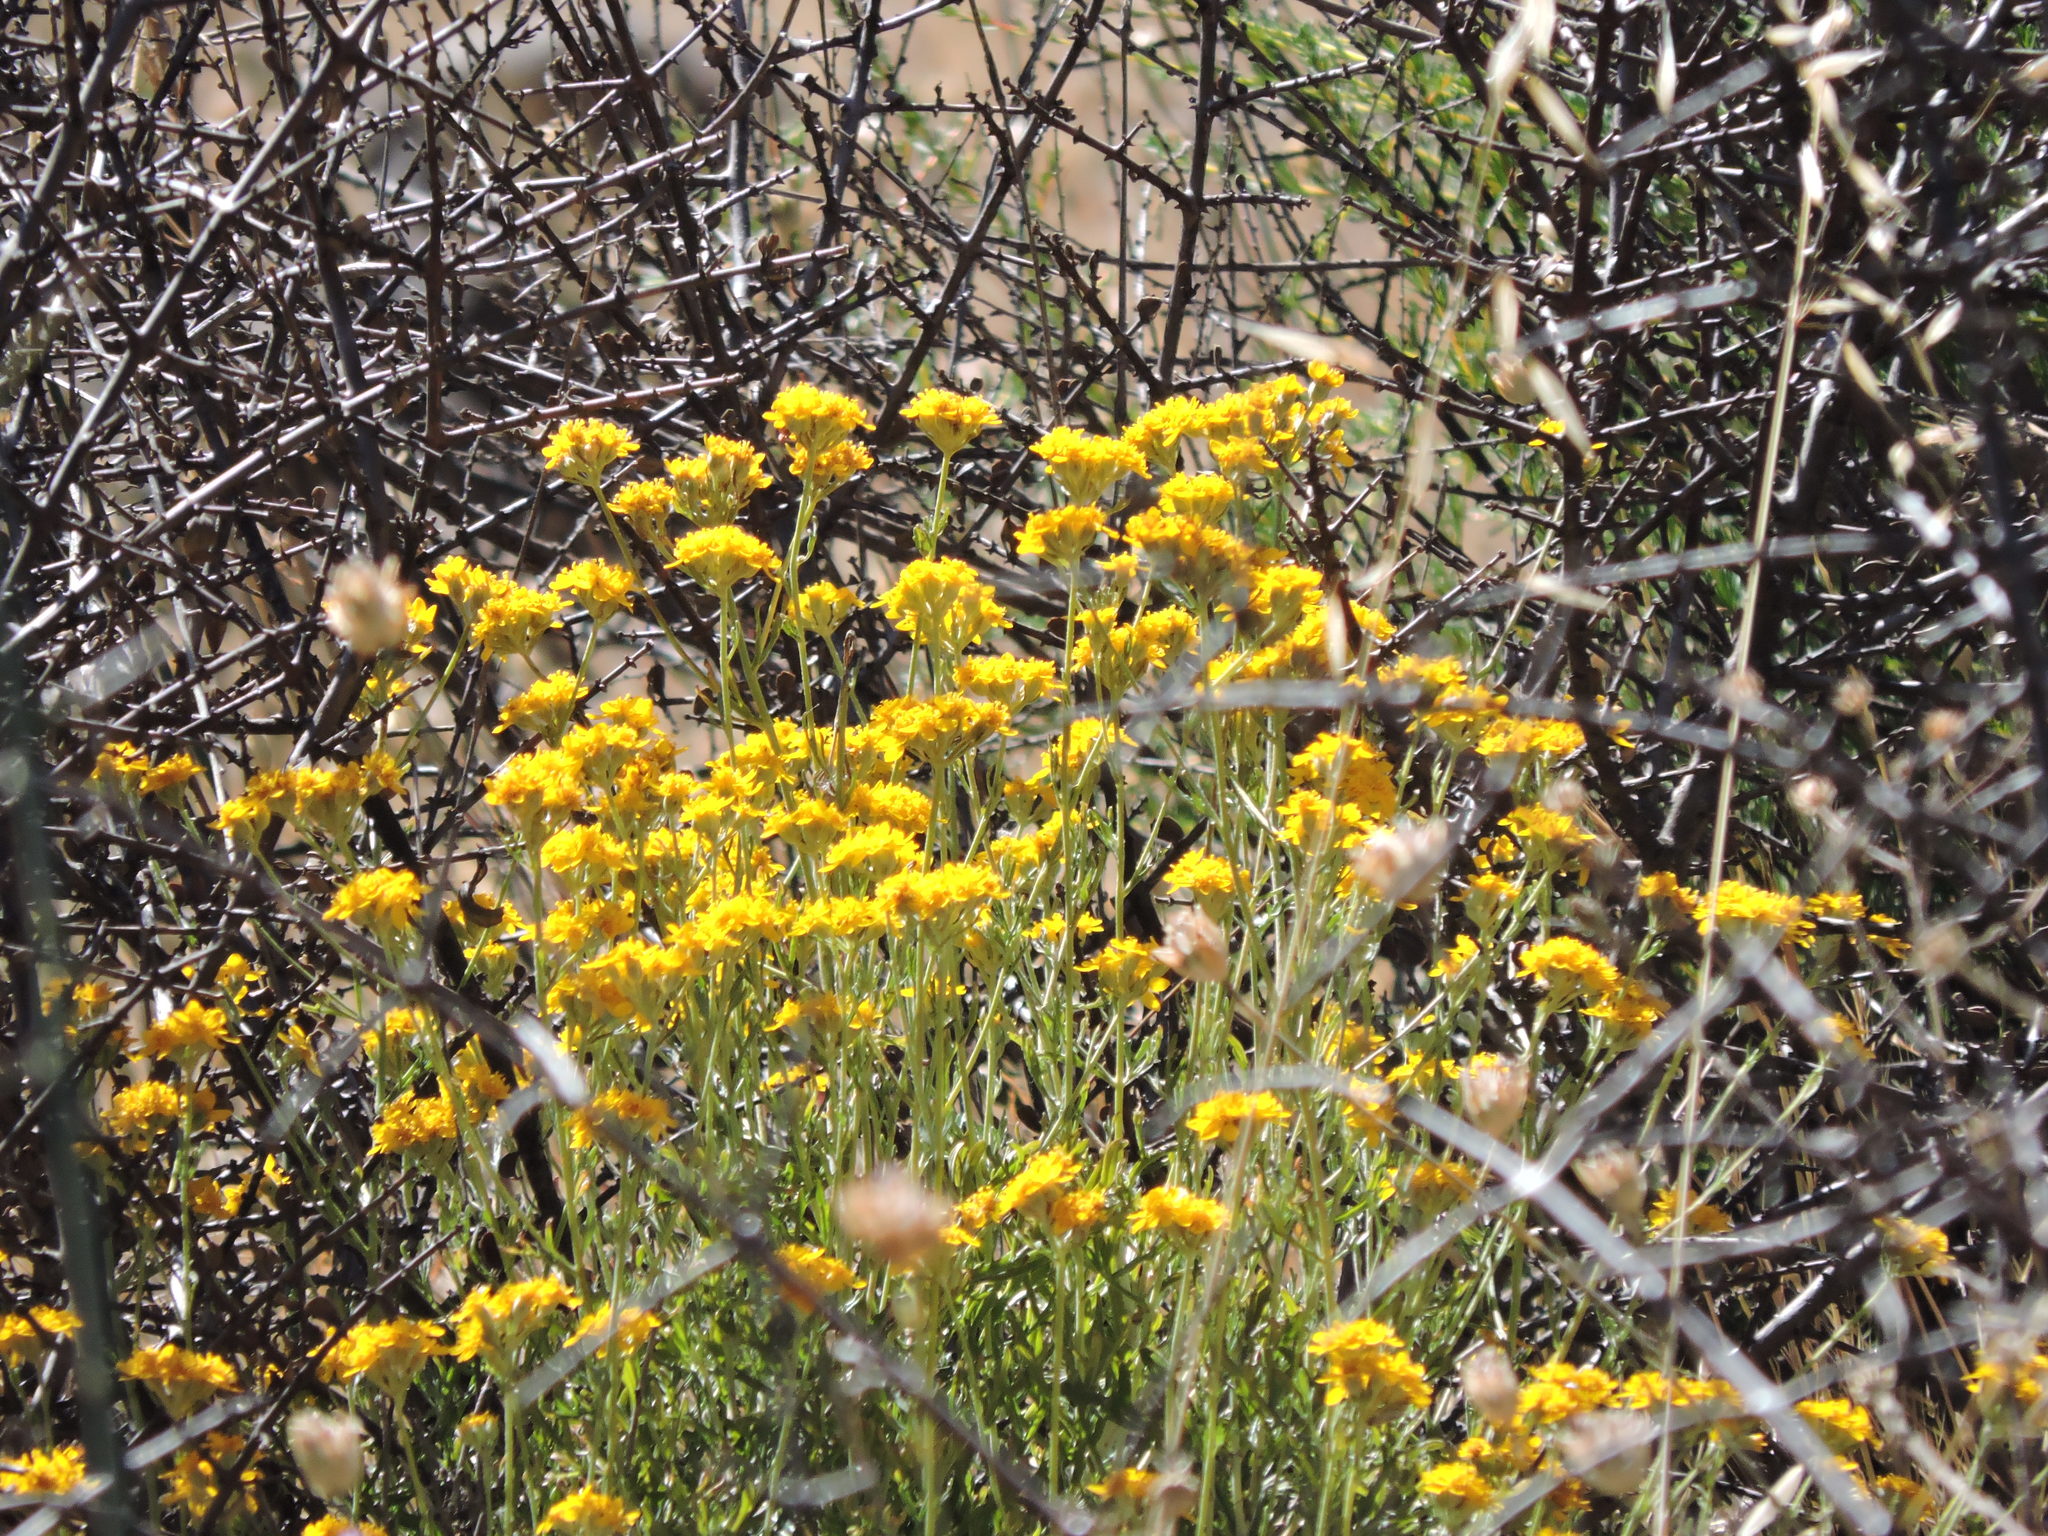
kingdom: Plantae
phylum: Tracheophyta
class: Magnoliopsida
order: Asterales
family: Asteraceae
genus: Eriophyllum
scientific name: Eriophyllum confertiflorum
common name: Golden-yarrow
